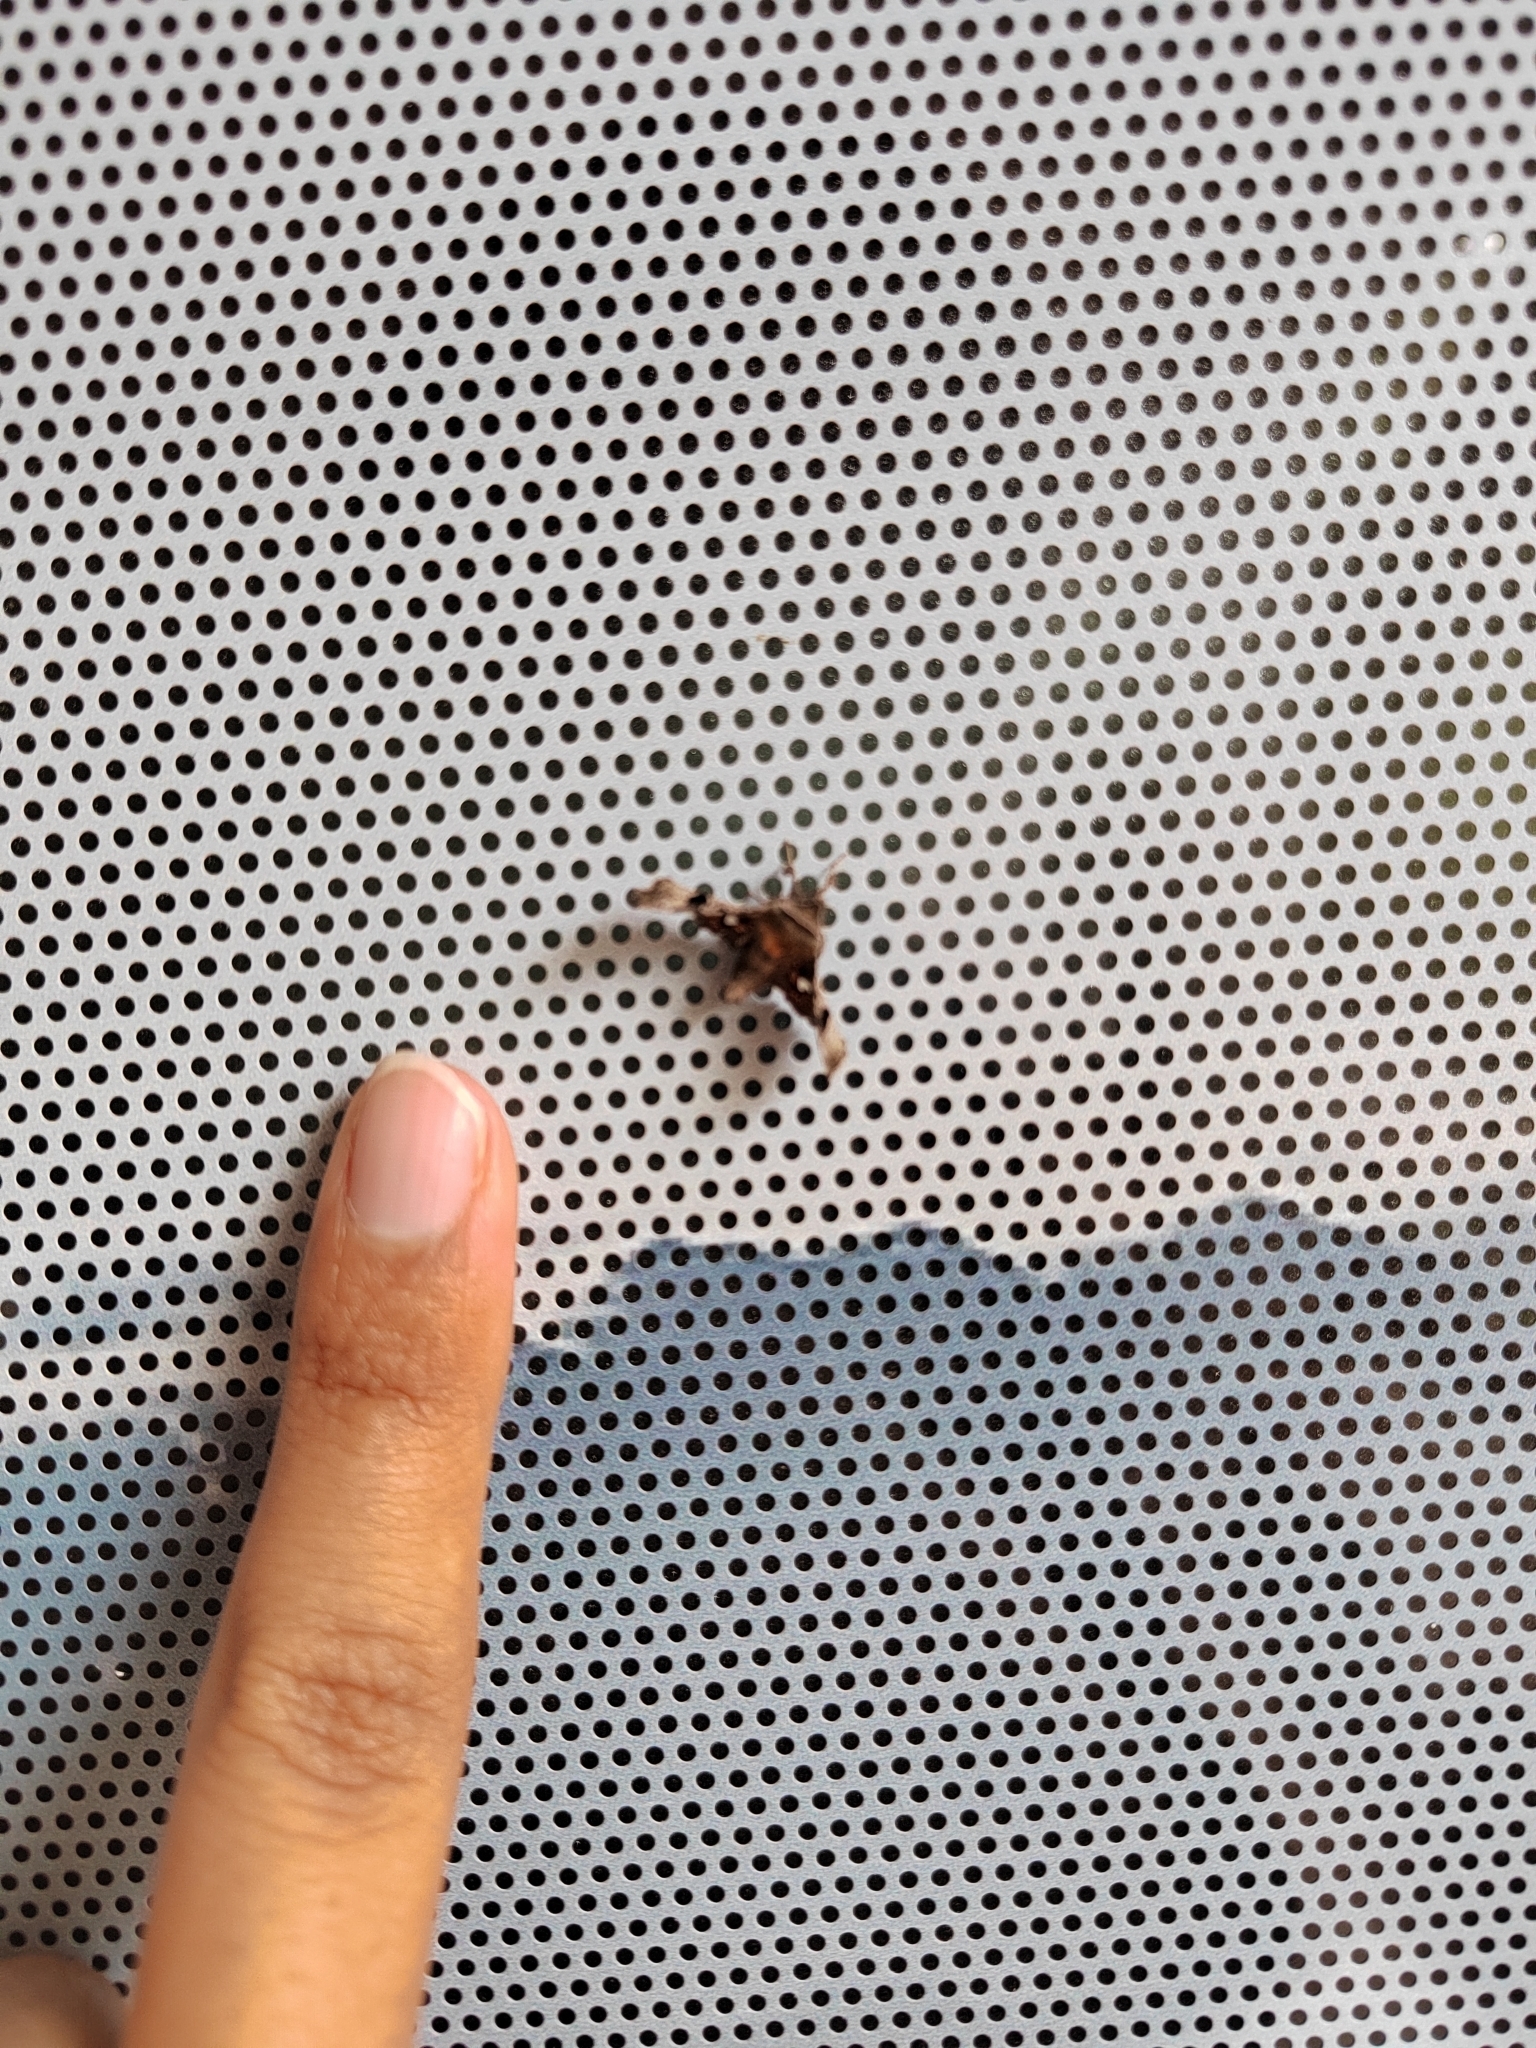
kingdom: Animalia
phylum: Arthropoda
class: Insecta
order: Lepidoptera
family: Thyrididae
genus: Dysodia
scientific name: Dysodia oculatana
